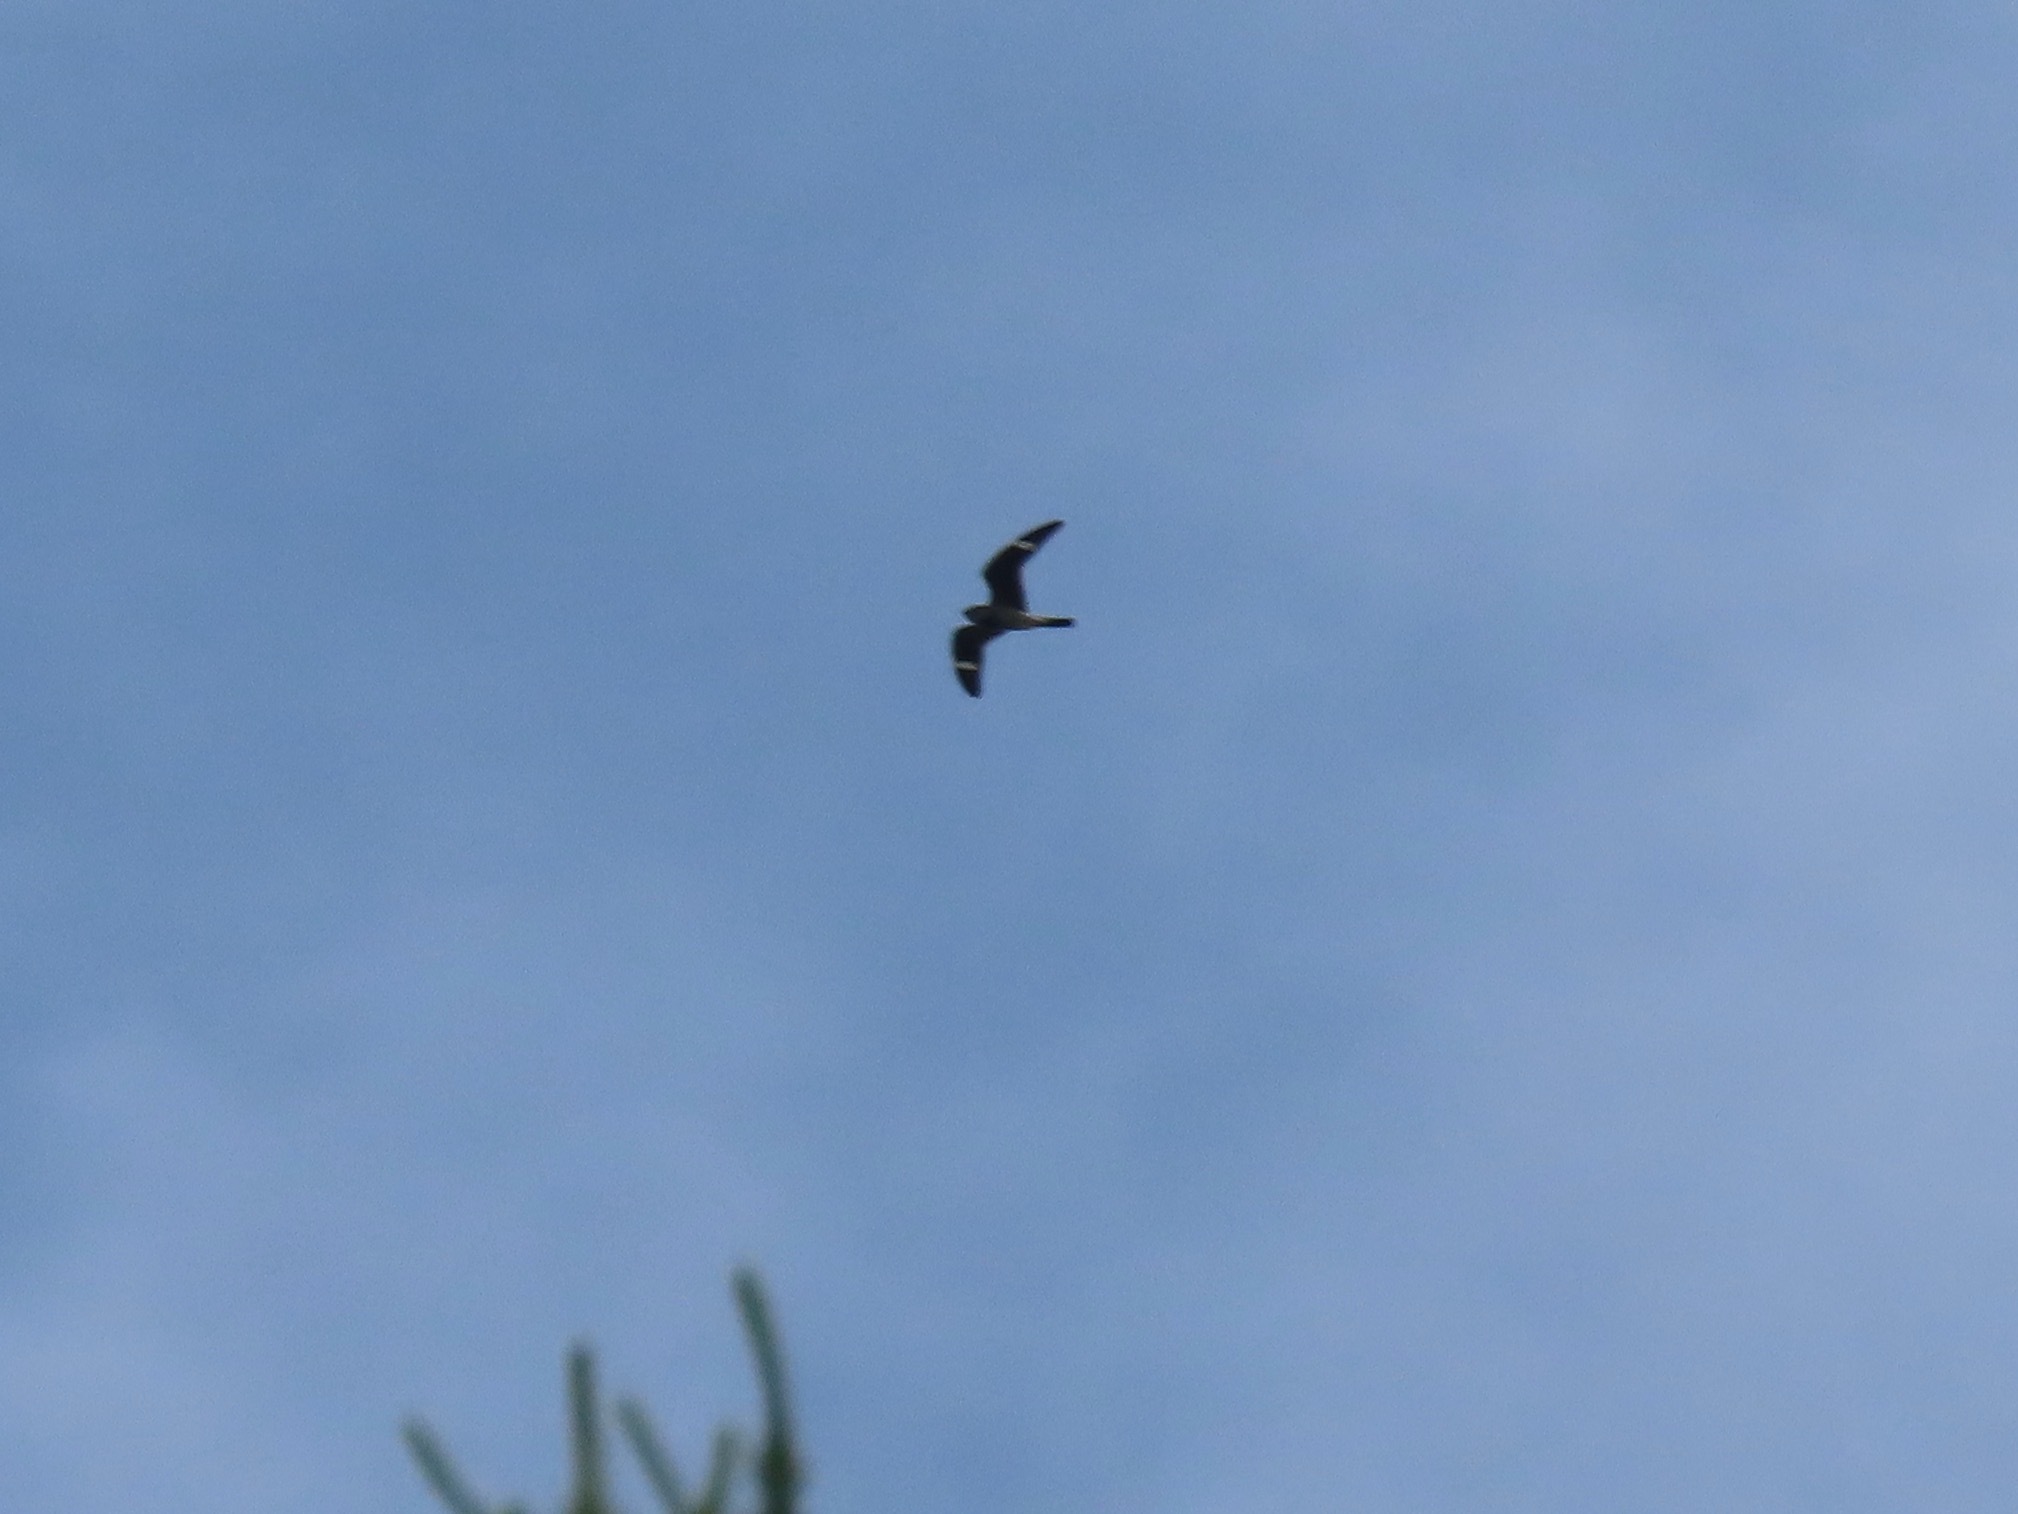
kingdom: Animalia
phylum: Chordata
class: Aves
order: Caprimulgiformes
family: Caprimulgidae
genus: Chordeiles
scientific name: Chordeiles minor
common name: Common nighthawk
